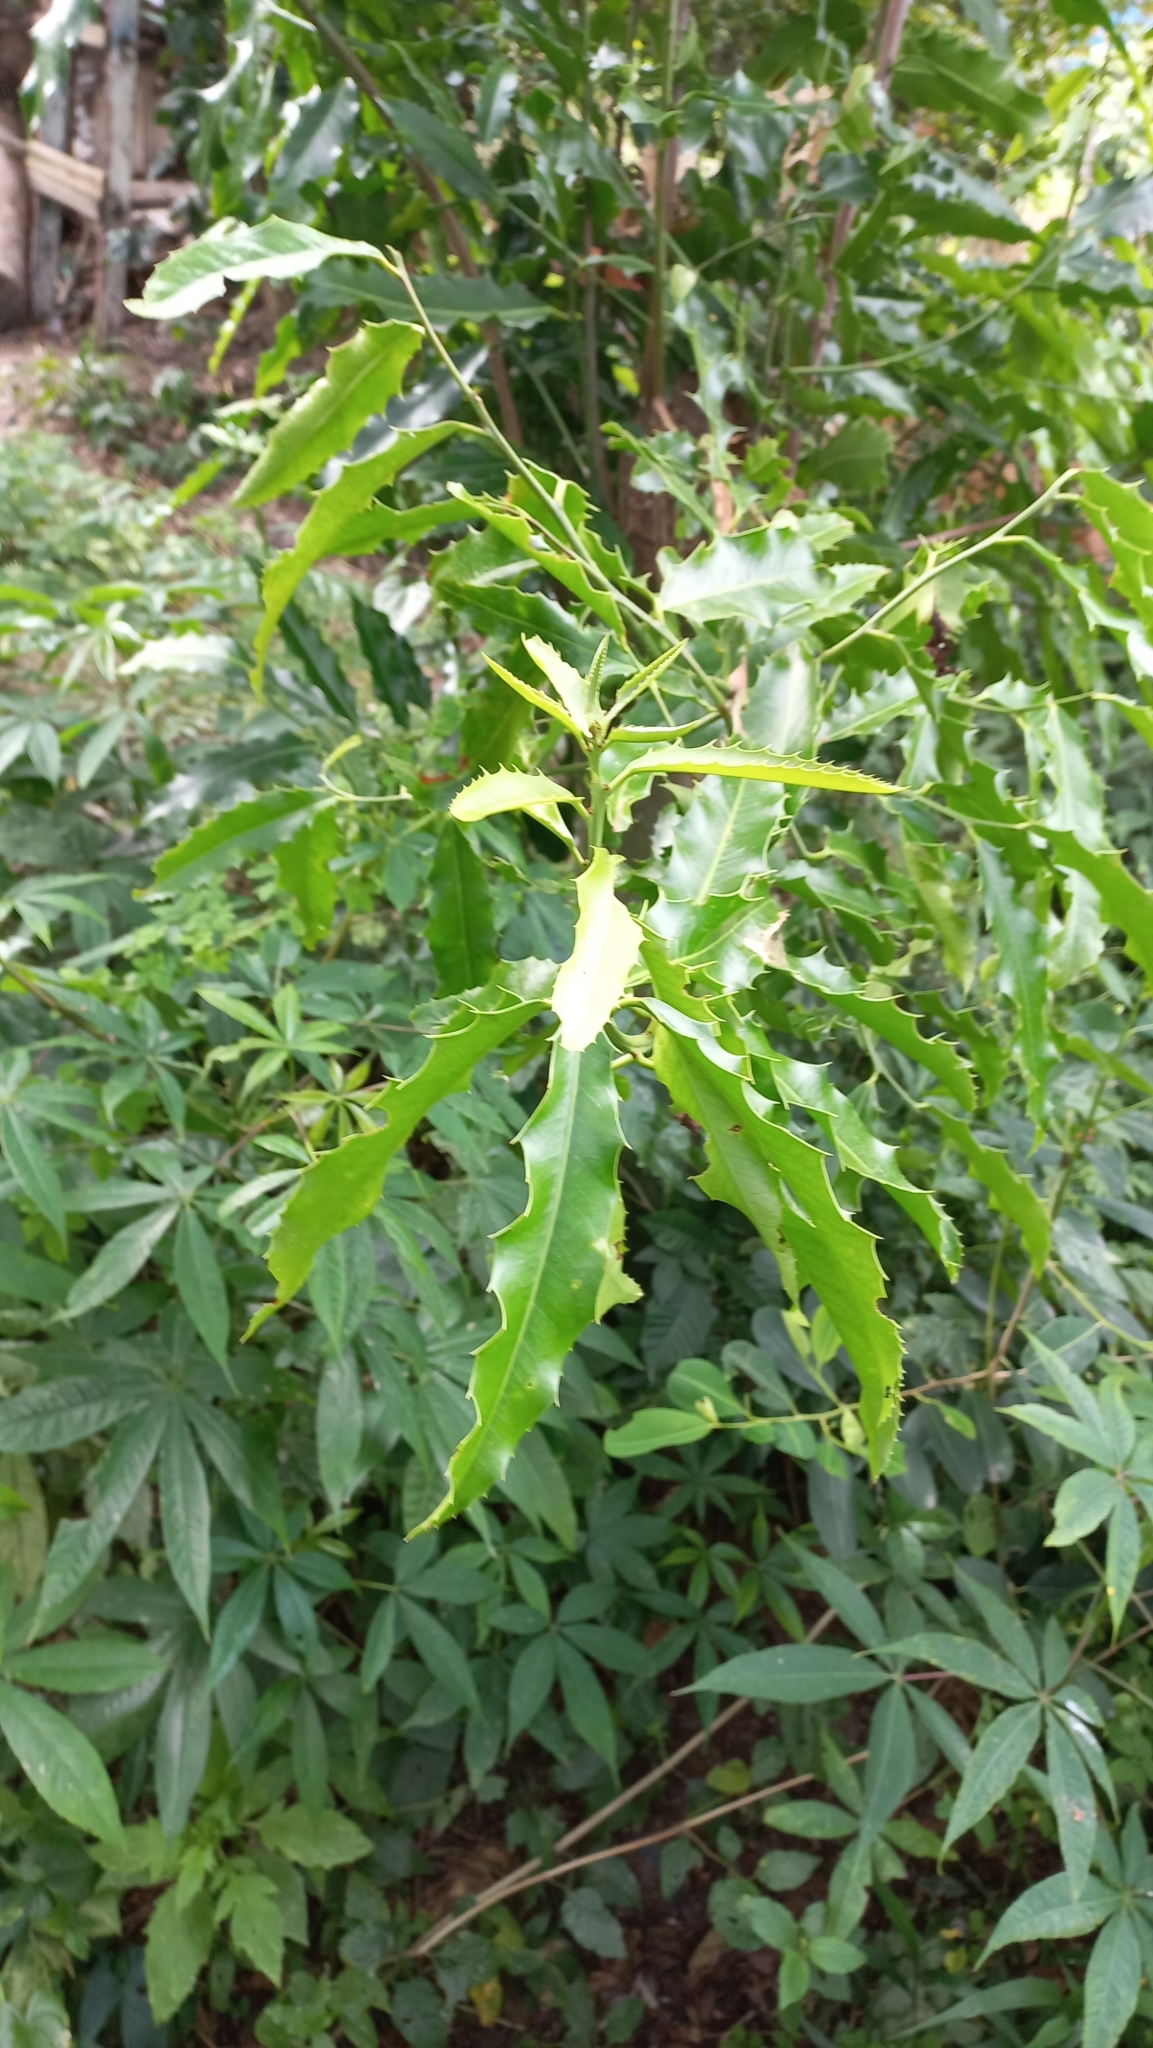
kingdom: Plantae
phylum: Tracheophyta
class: Magnoliopsida
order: Celastrales
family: Celastraceae
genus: Monteverdia
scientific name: Monteverdia
